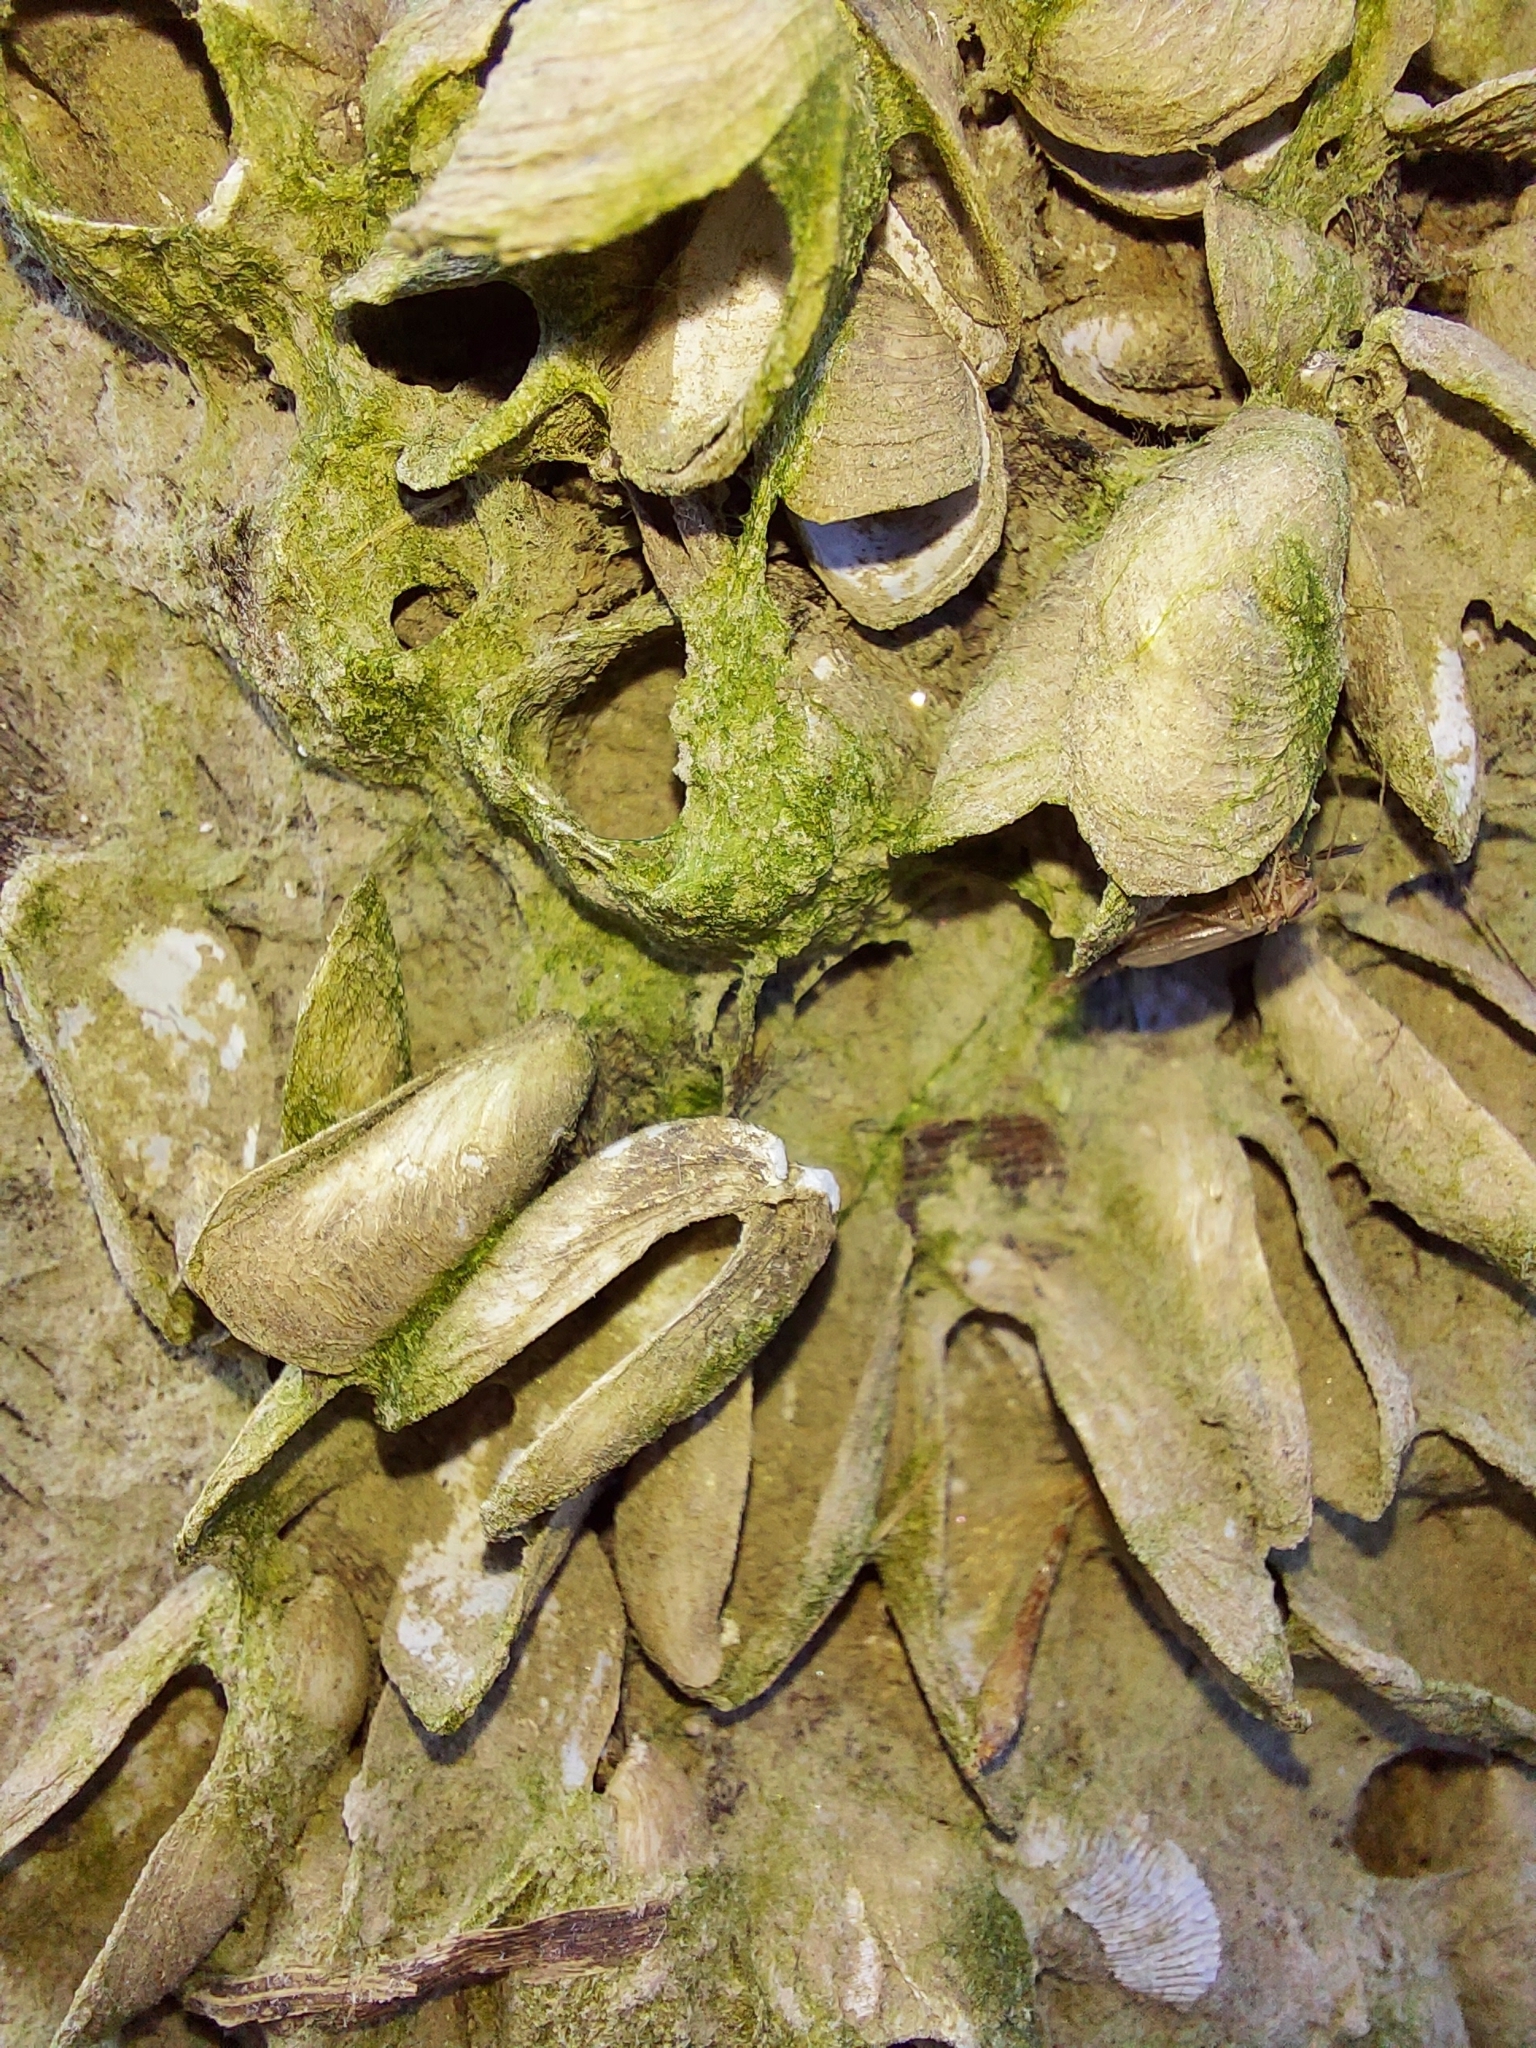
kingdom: Animalia
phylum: Mollusca
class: Bivalvia
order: Myida
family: Dreissenidae
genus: Mytilopsis
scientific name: Mytilopsis leucophaeata
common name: Conrad's false mussel
